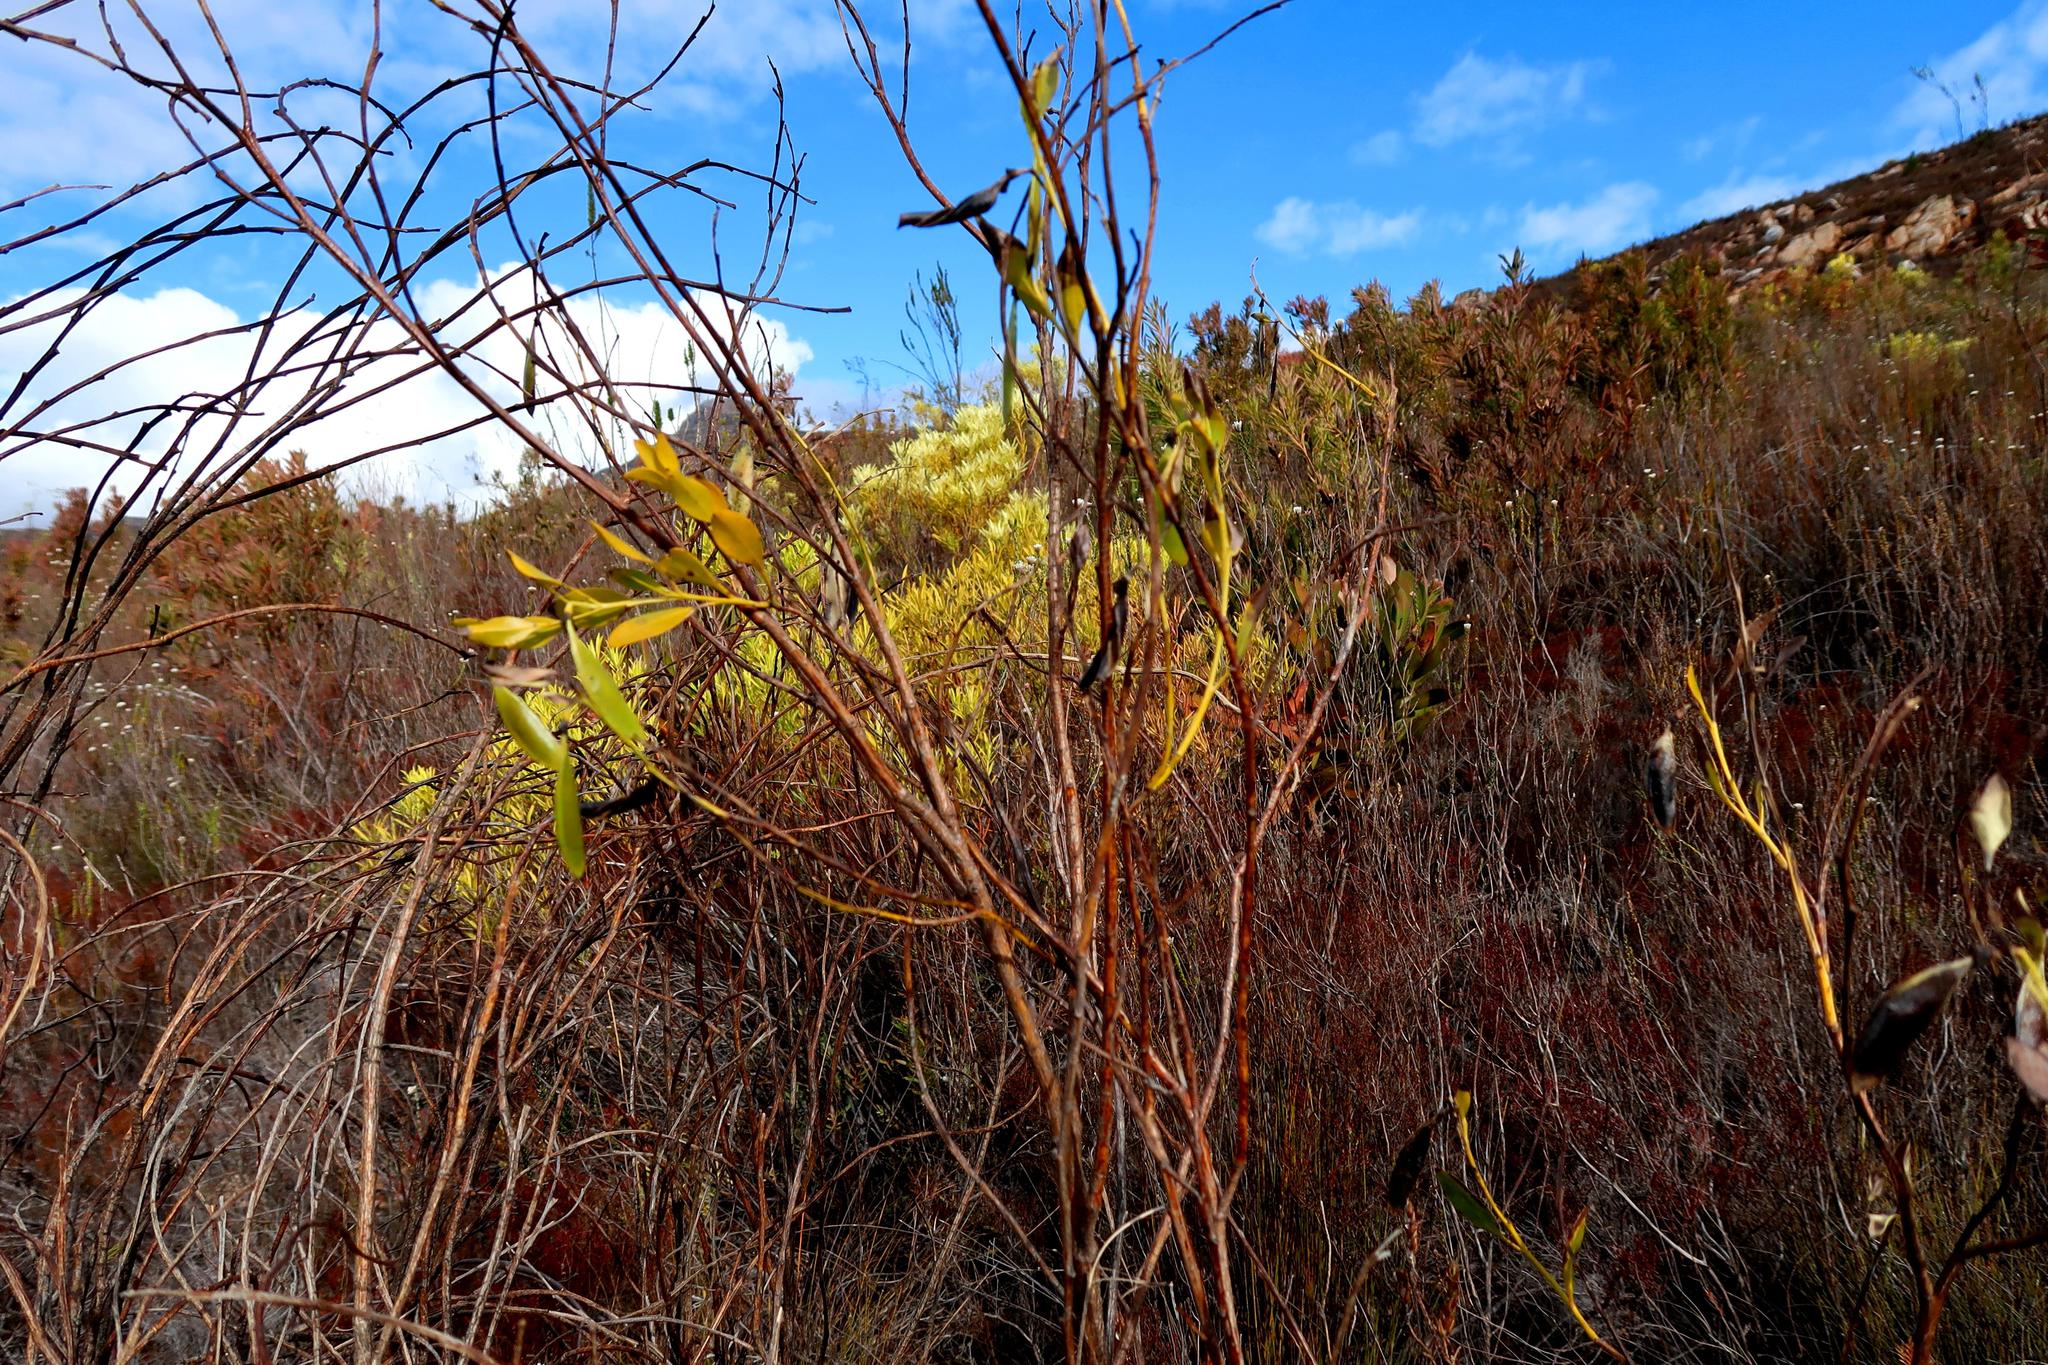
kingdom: Plantae
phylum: Tracheophyta
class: Magnoliopsida
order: Fabales
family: Fabaceae
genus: Rafnia
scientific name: Rafnia vlokii
